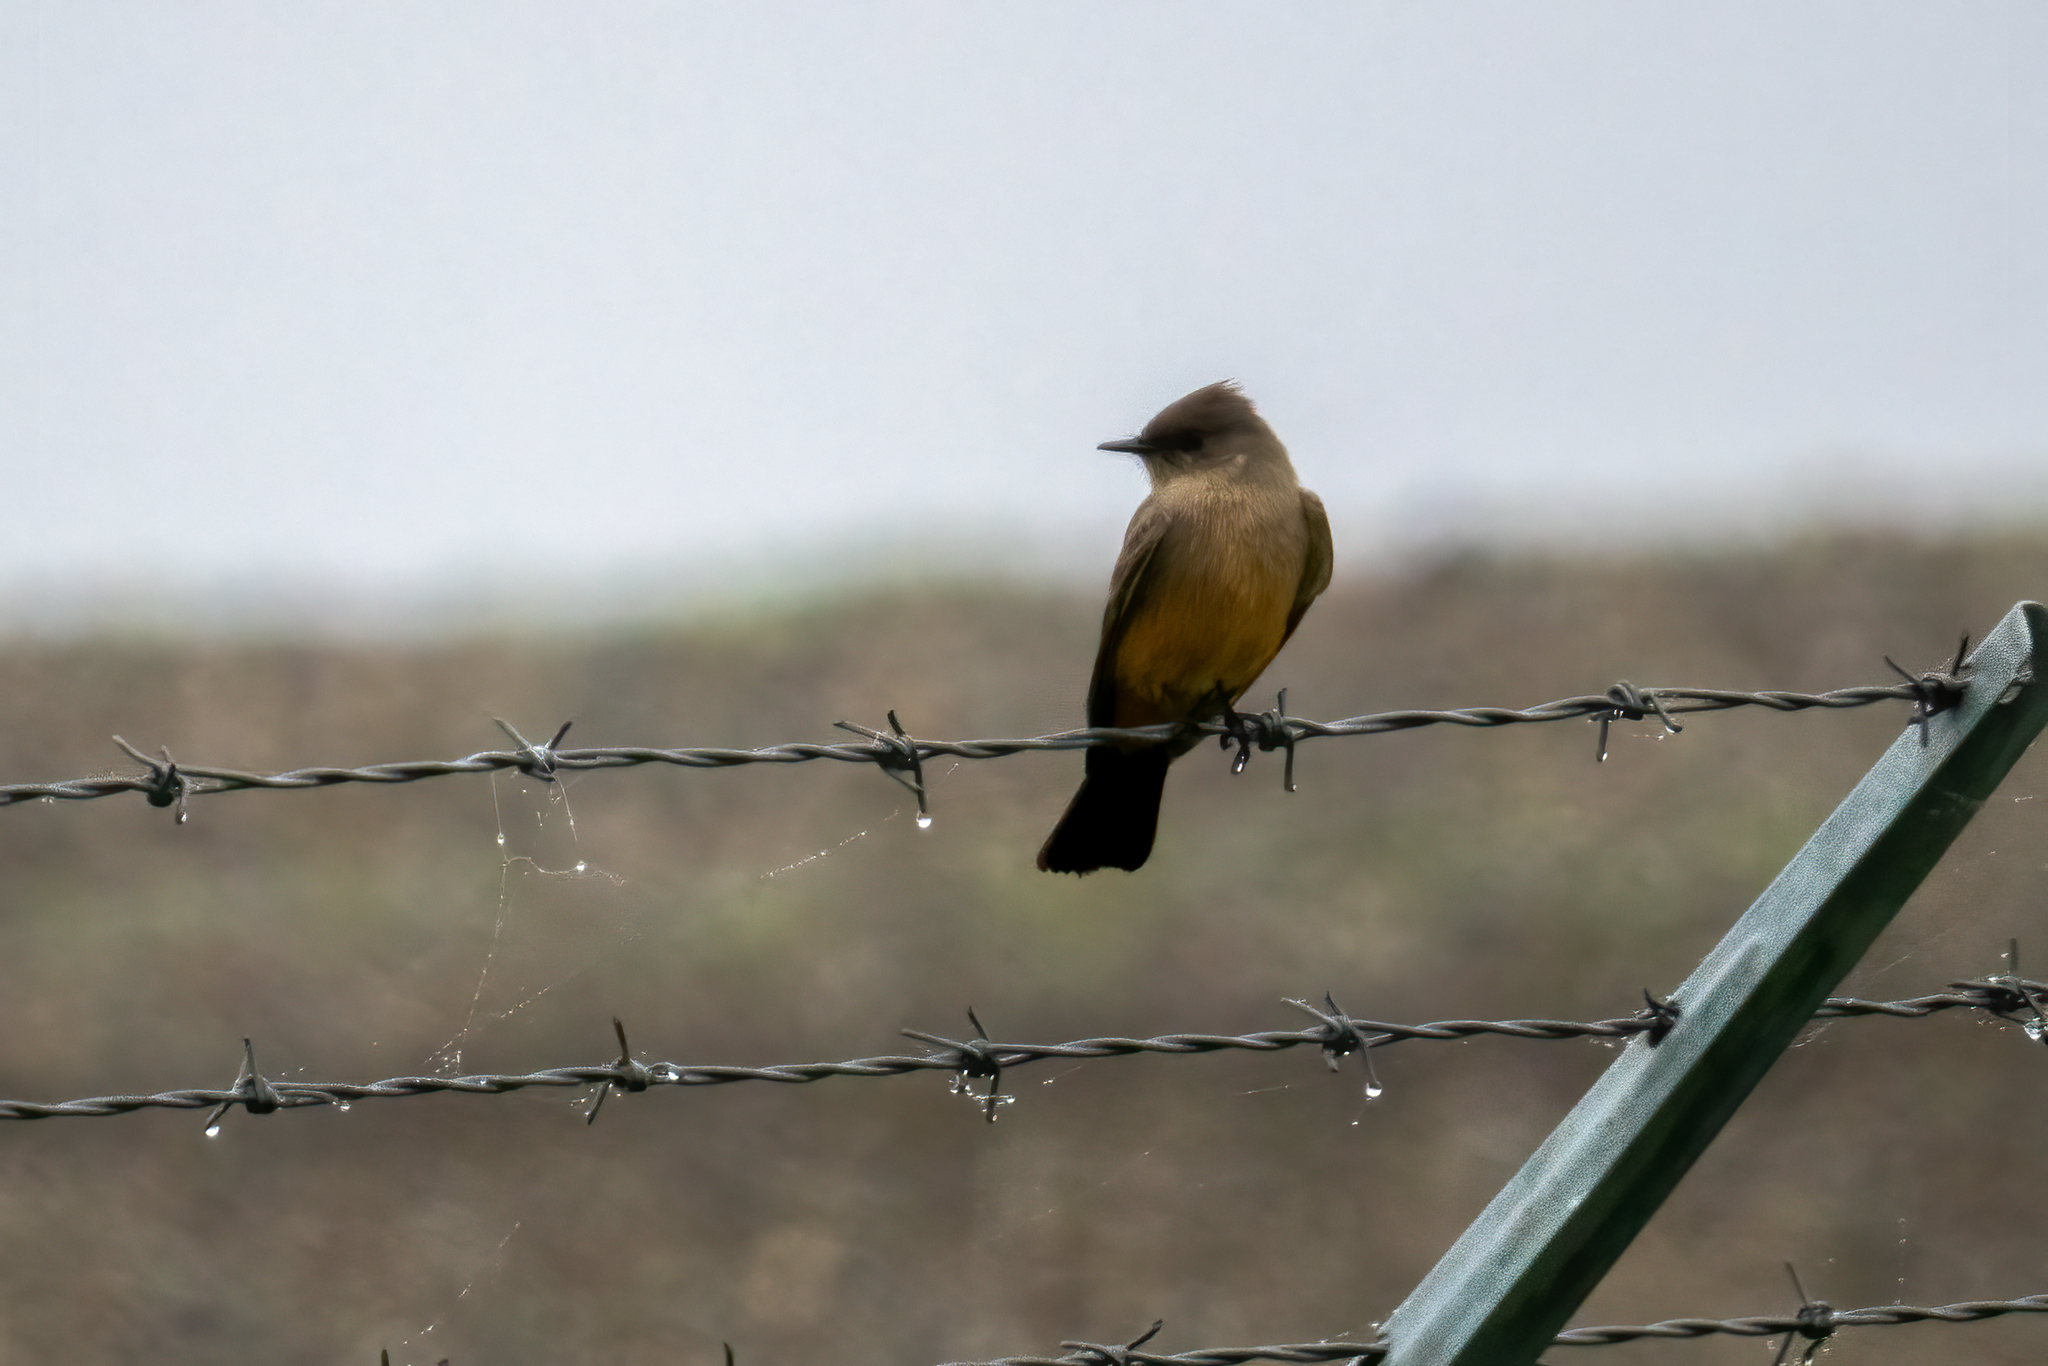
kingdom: Animalia
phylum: Chordata
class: Aves
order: Passeriformes
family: Tyrannidae
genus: Sayornis
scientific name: Sayornis saya
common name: Say's phoebe
